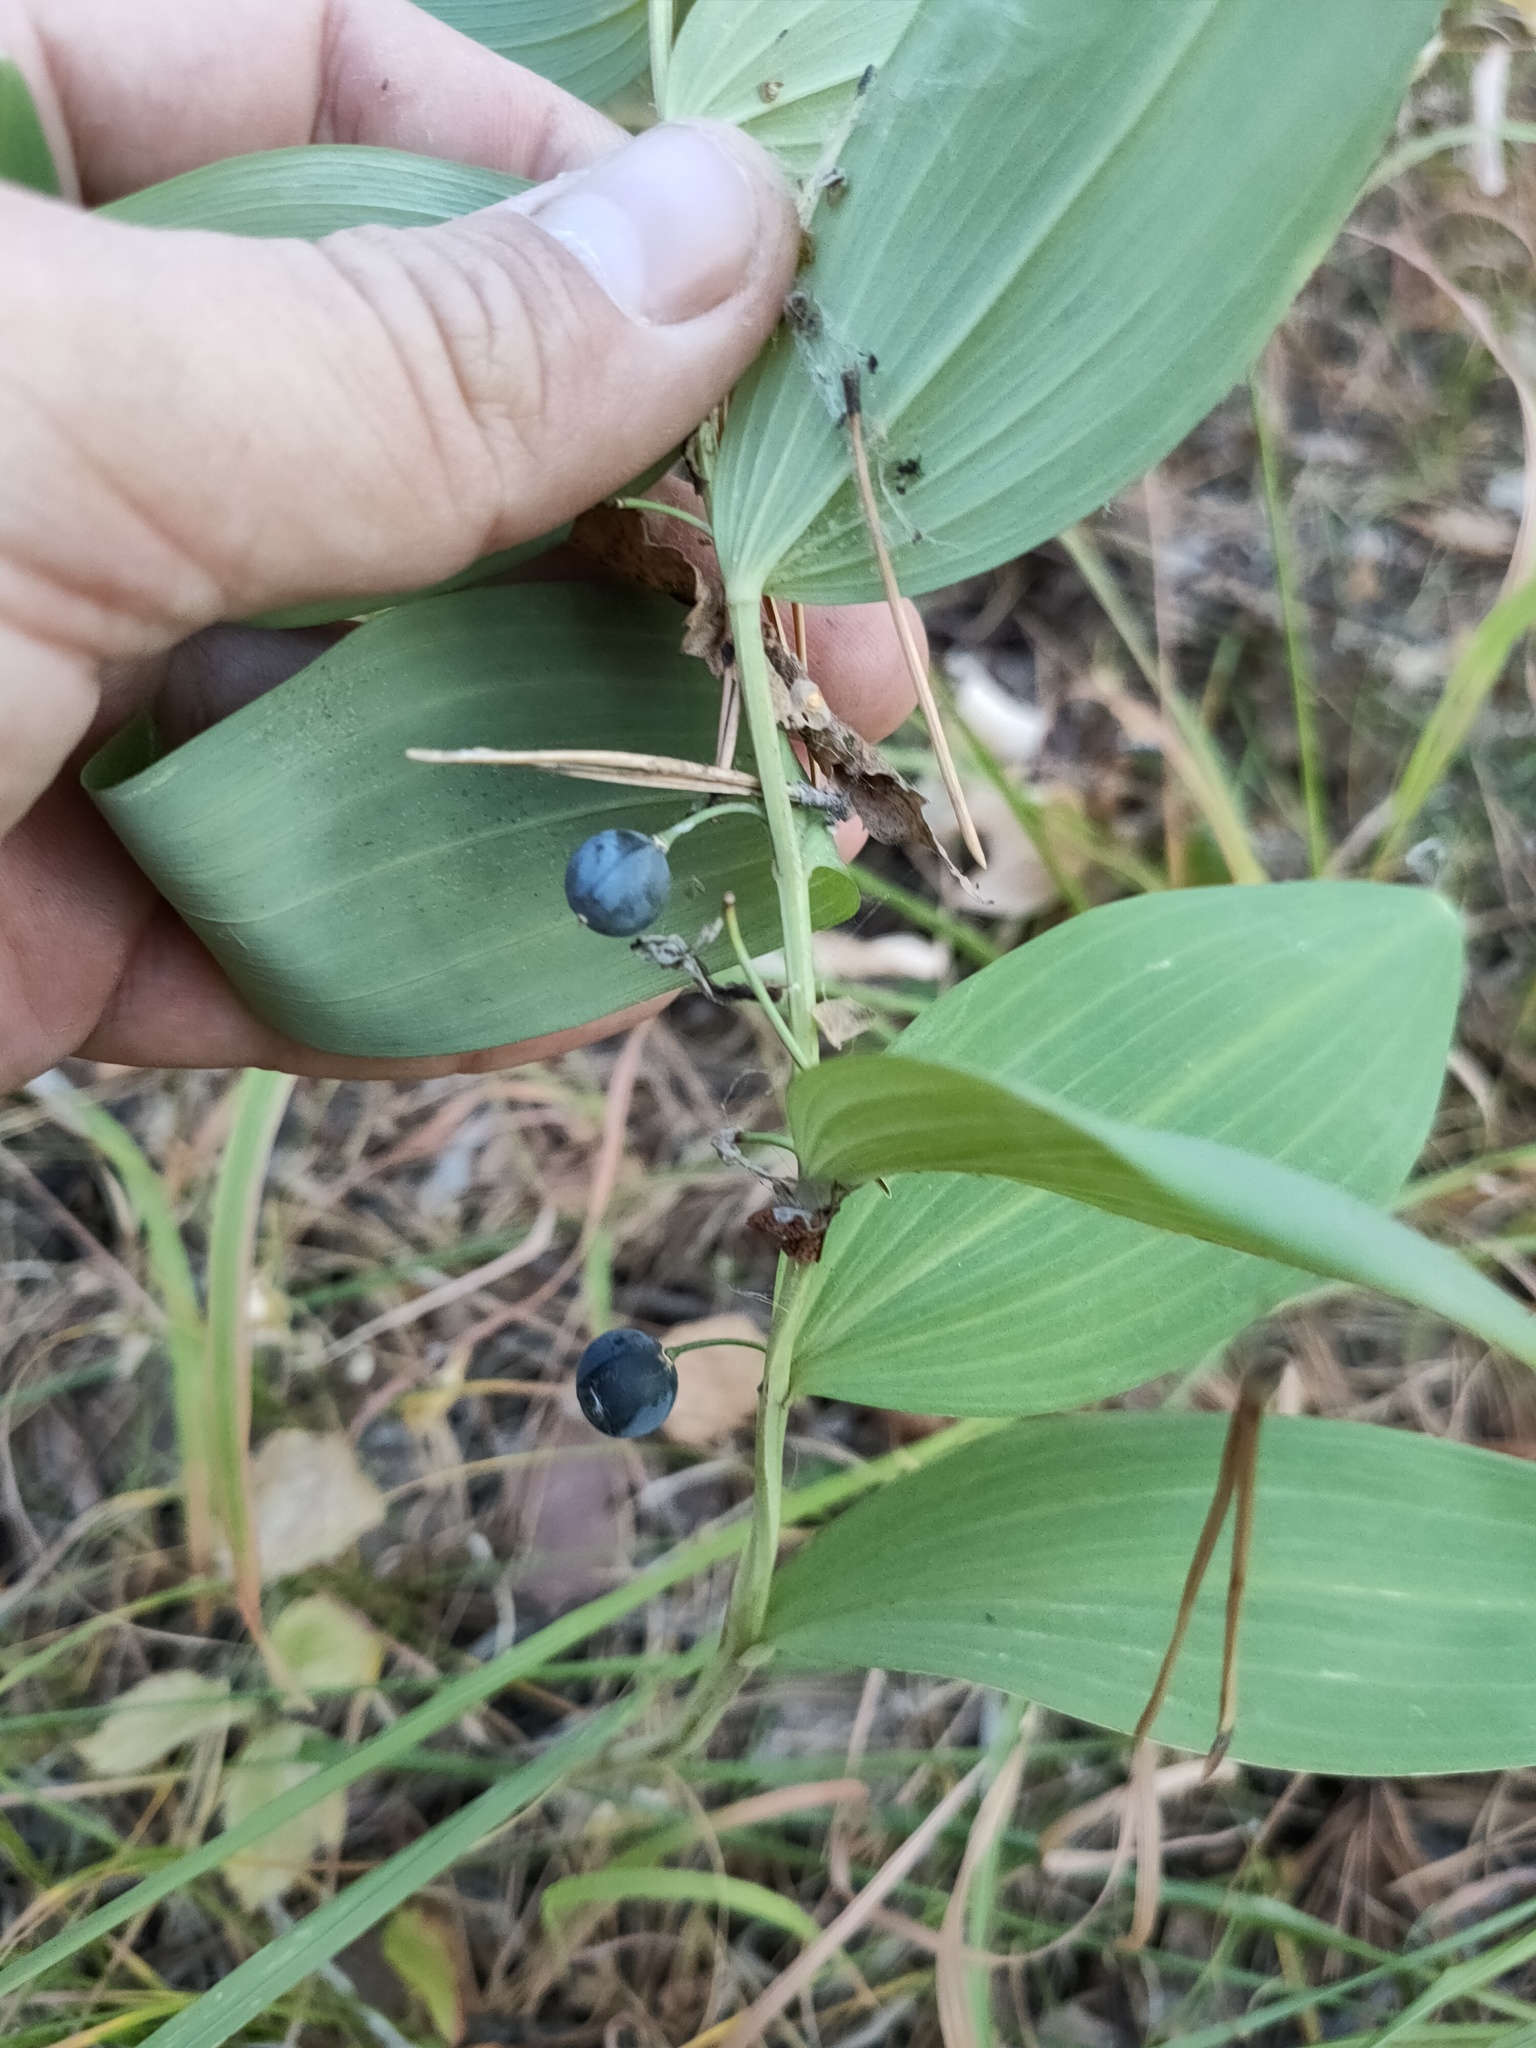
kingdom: Plantae
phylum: Tracheophyta
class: Liliopsida
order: Asparagales
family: Asparagaceae
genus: Polygonatum
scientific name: Polygonatum odoratum
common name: Angular solomon's-seal
